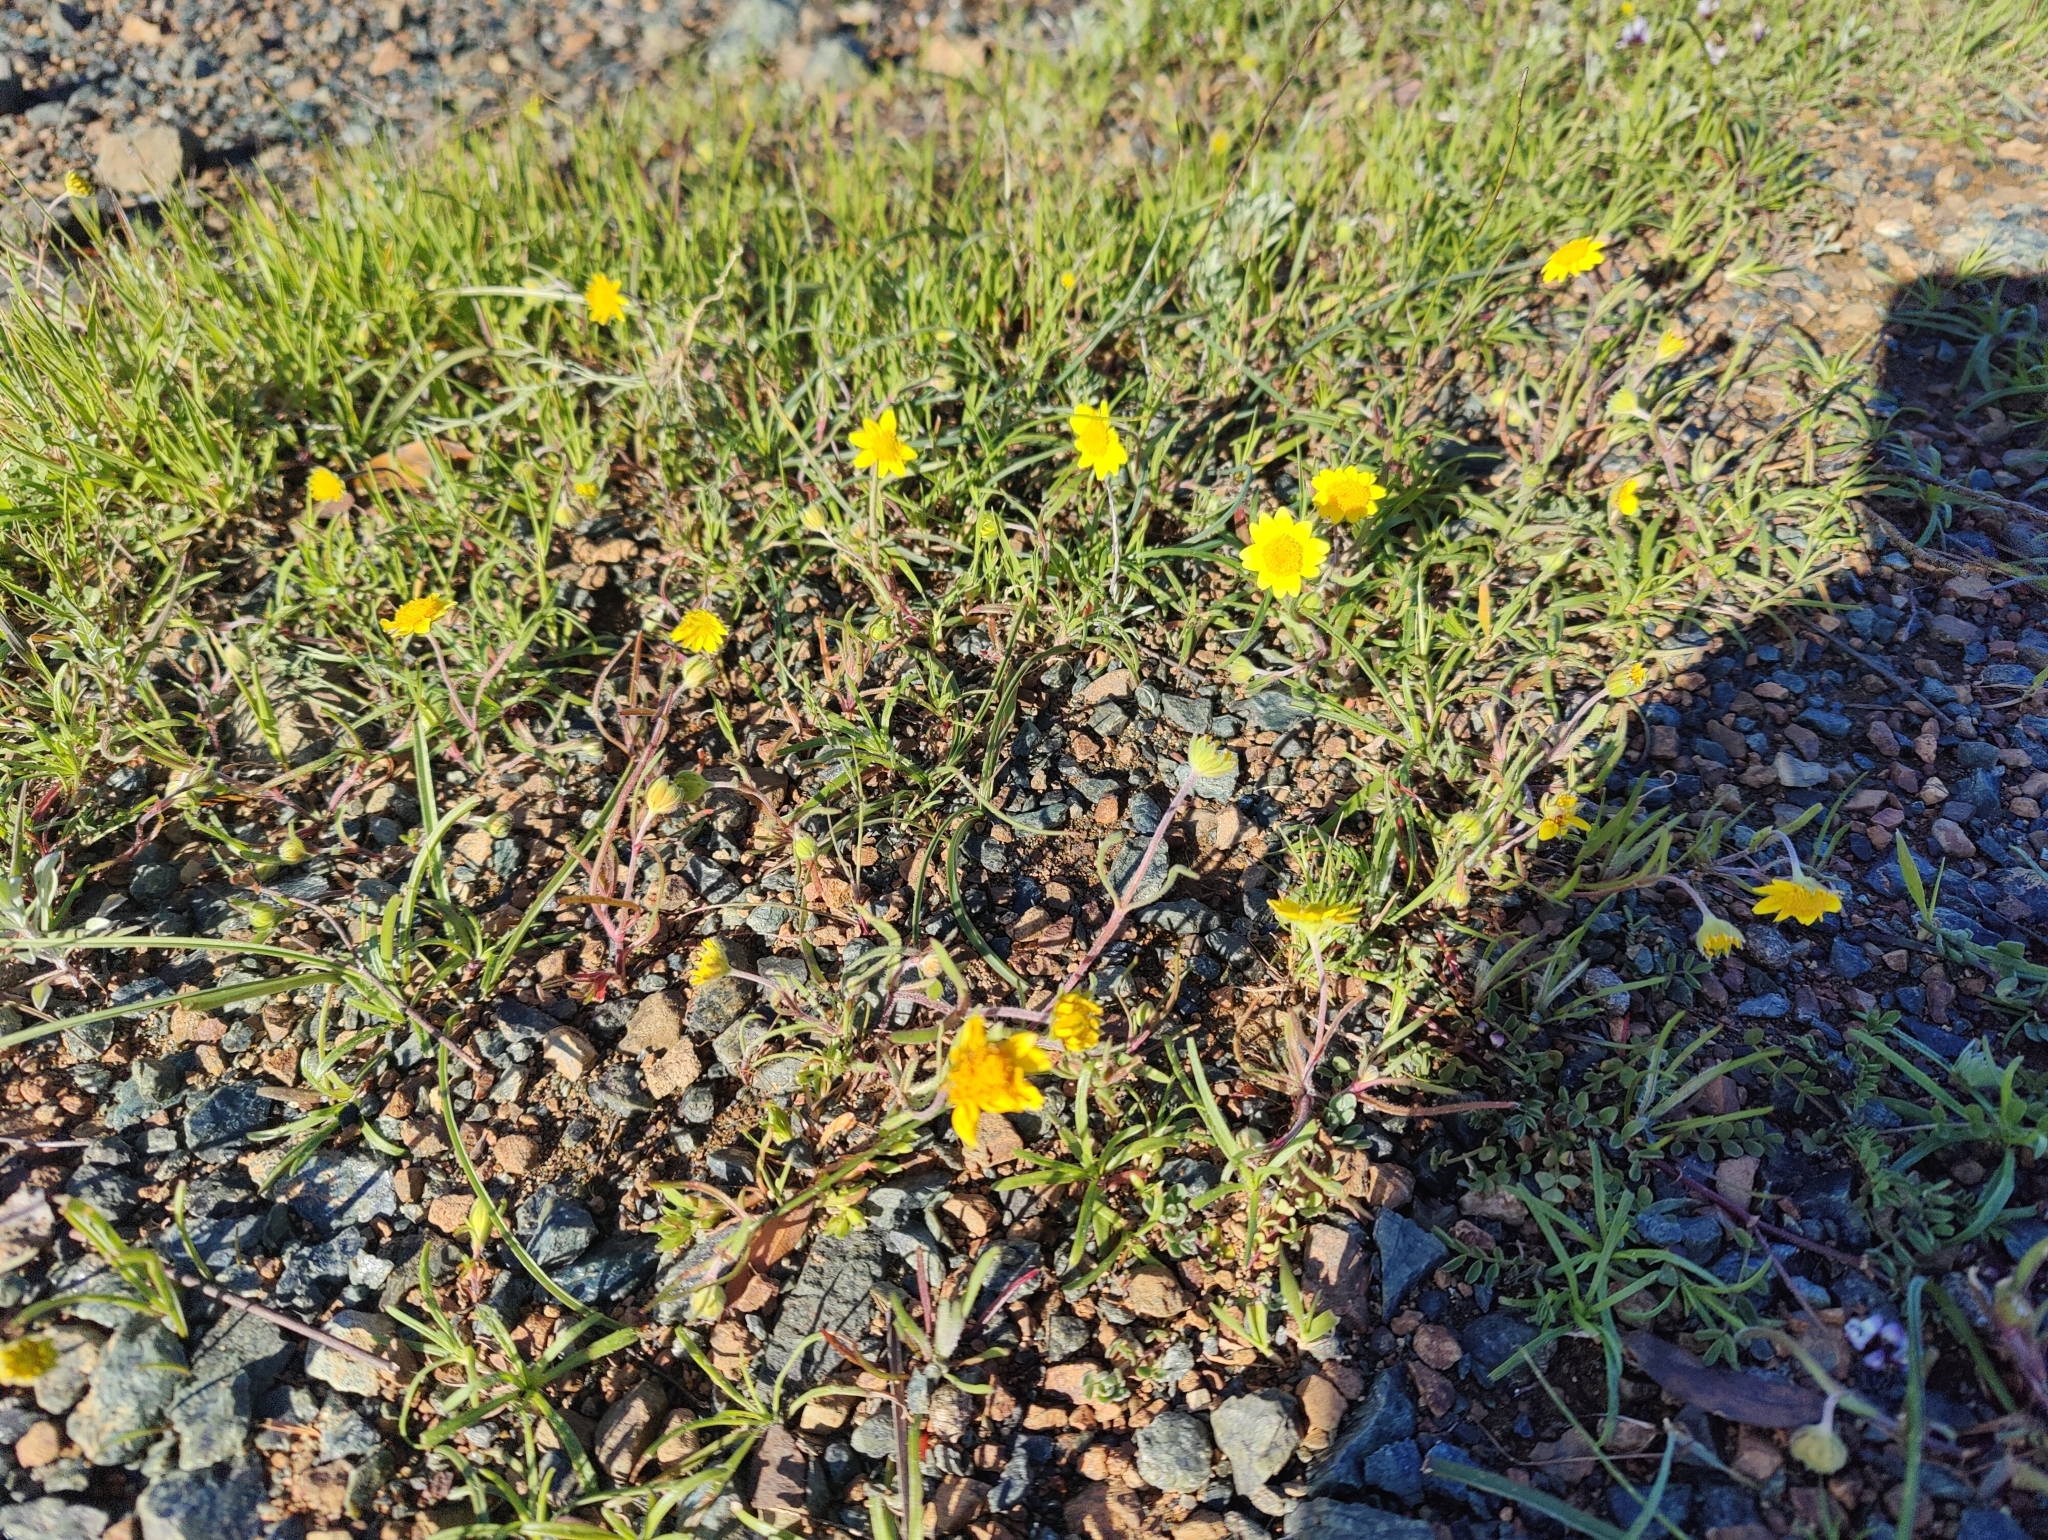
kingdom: Plantae
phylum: Tracheophyta
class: Magnoliopsida
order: Asterales
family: Asteraceae
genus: Lasthenia
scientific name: Lasthenia californica
